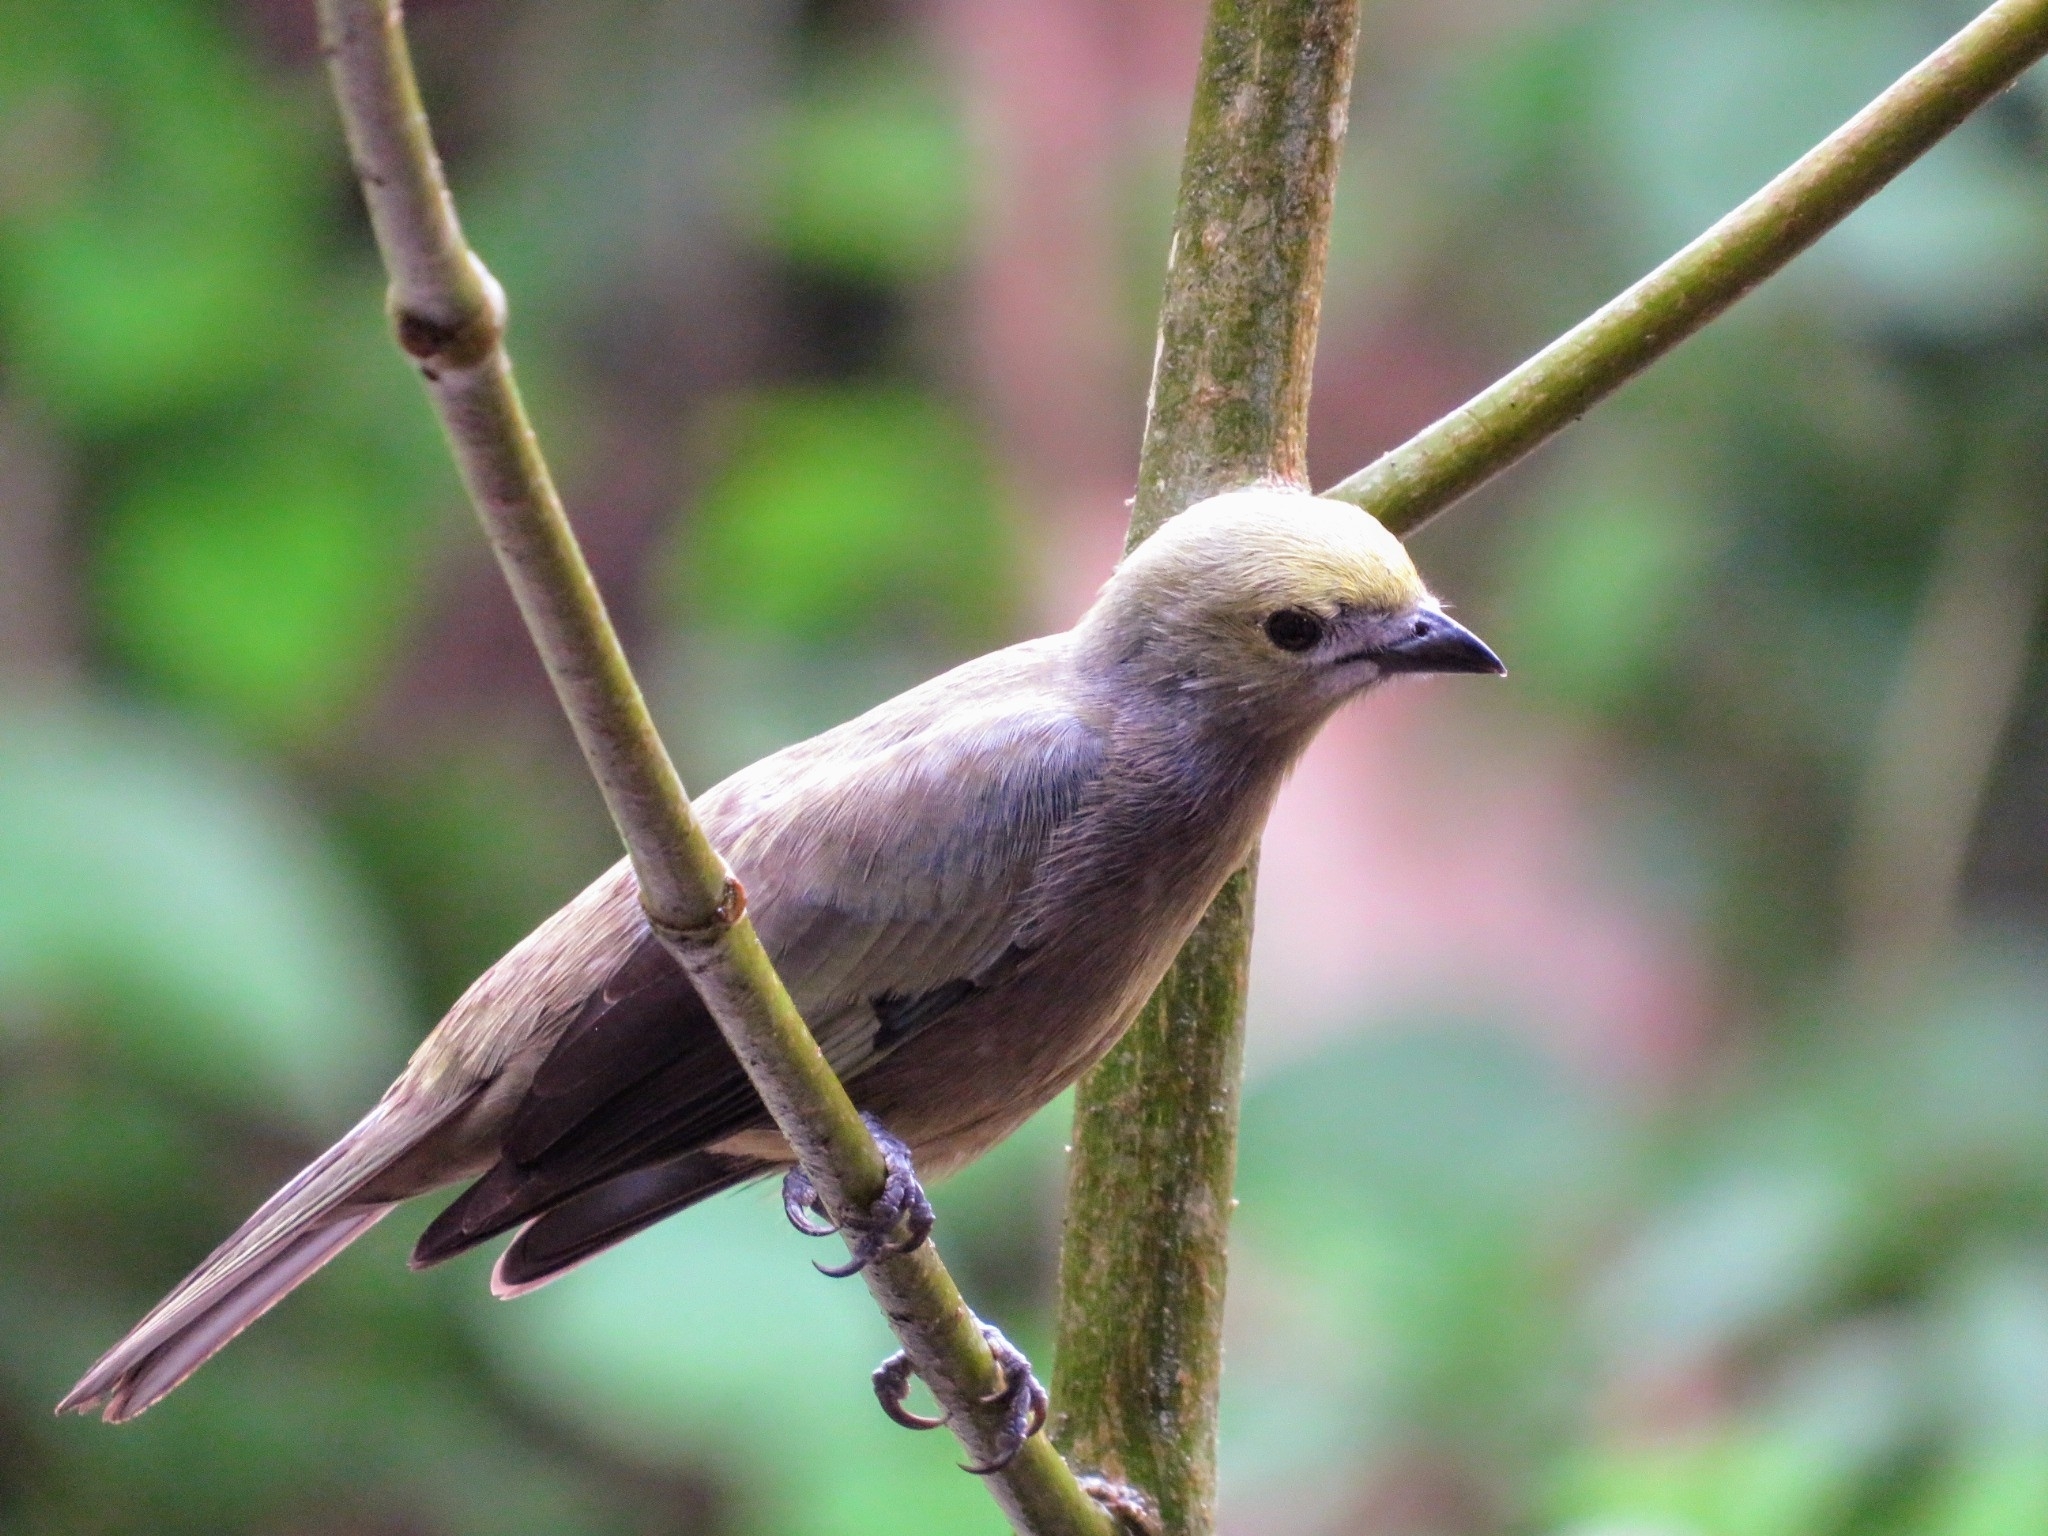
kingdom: Animalia
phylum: Chordata
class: Aves
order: Passeriformes
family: Thraupidae
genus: Thraupis
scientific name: Thraupis palmarum
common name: Palm tanager
